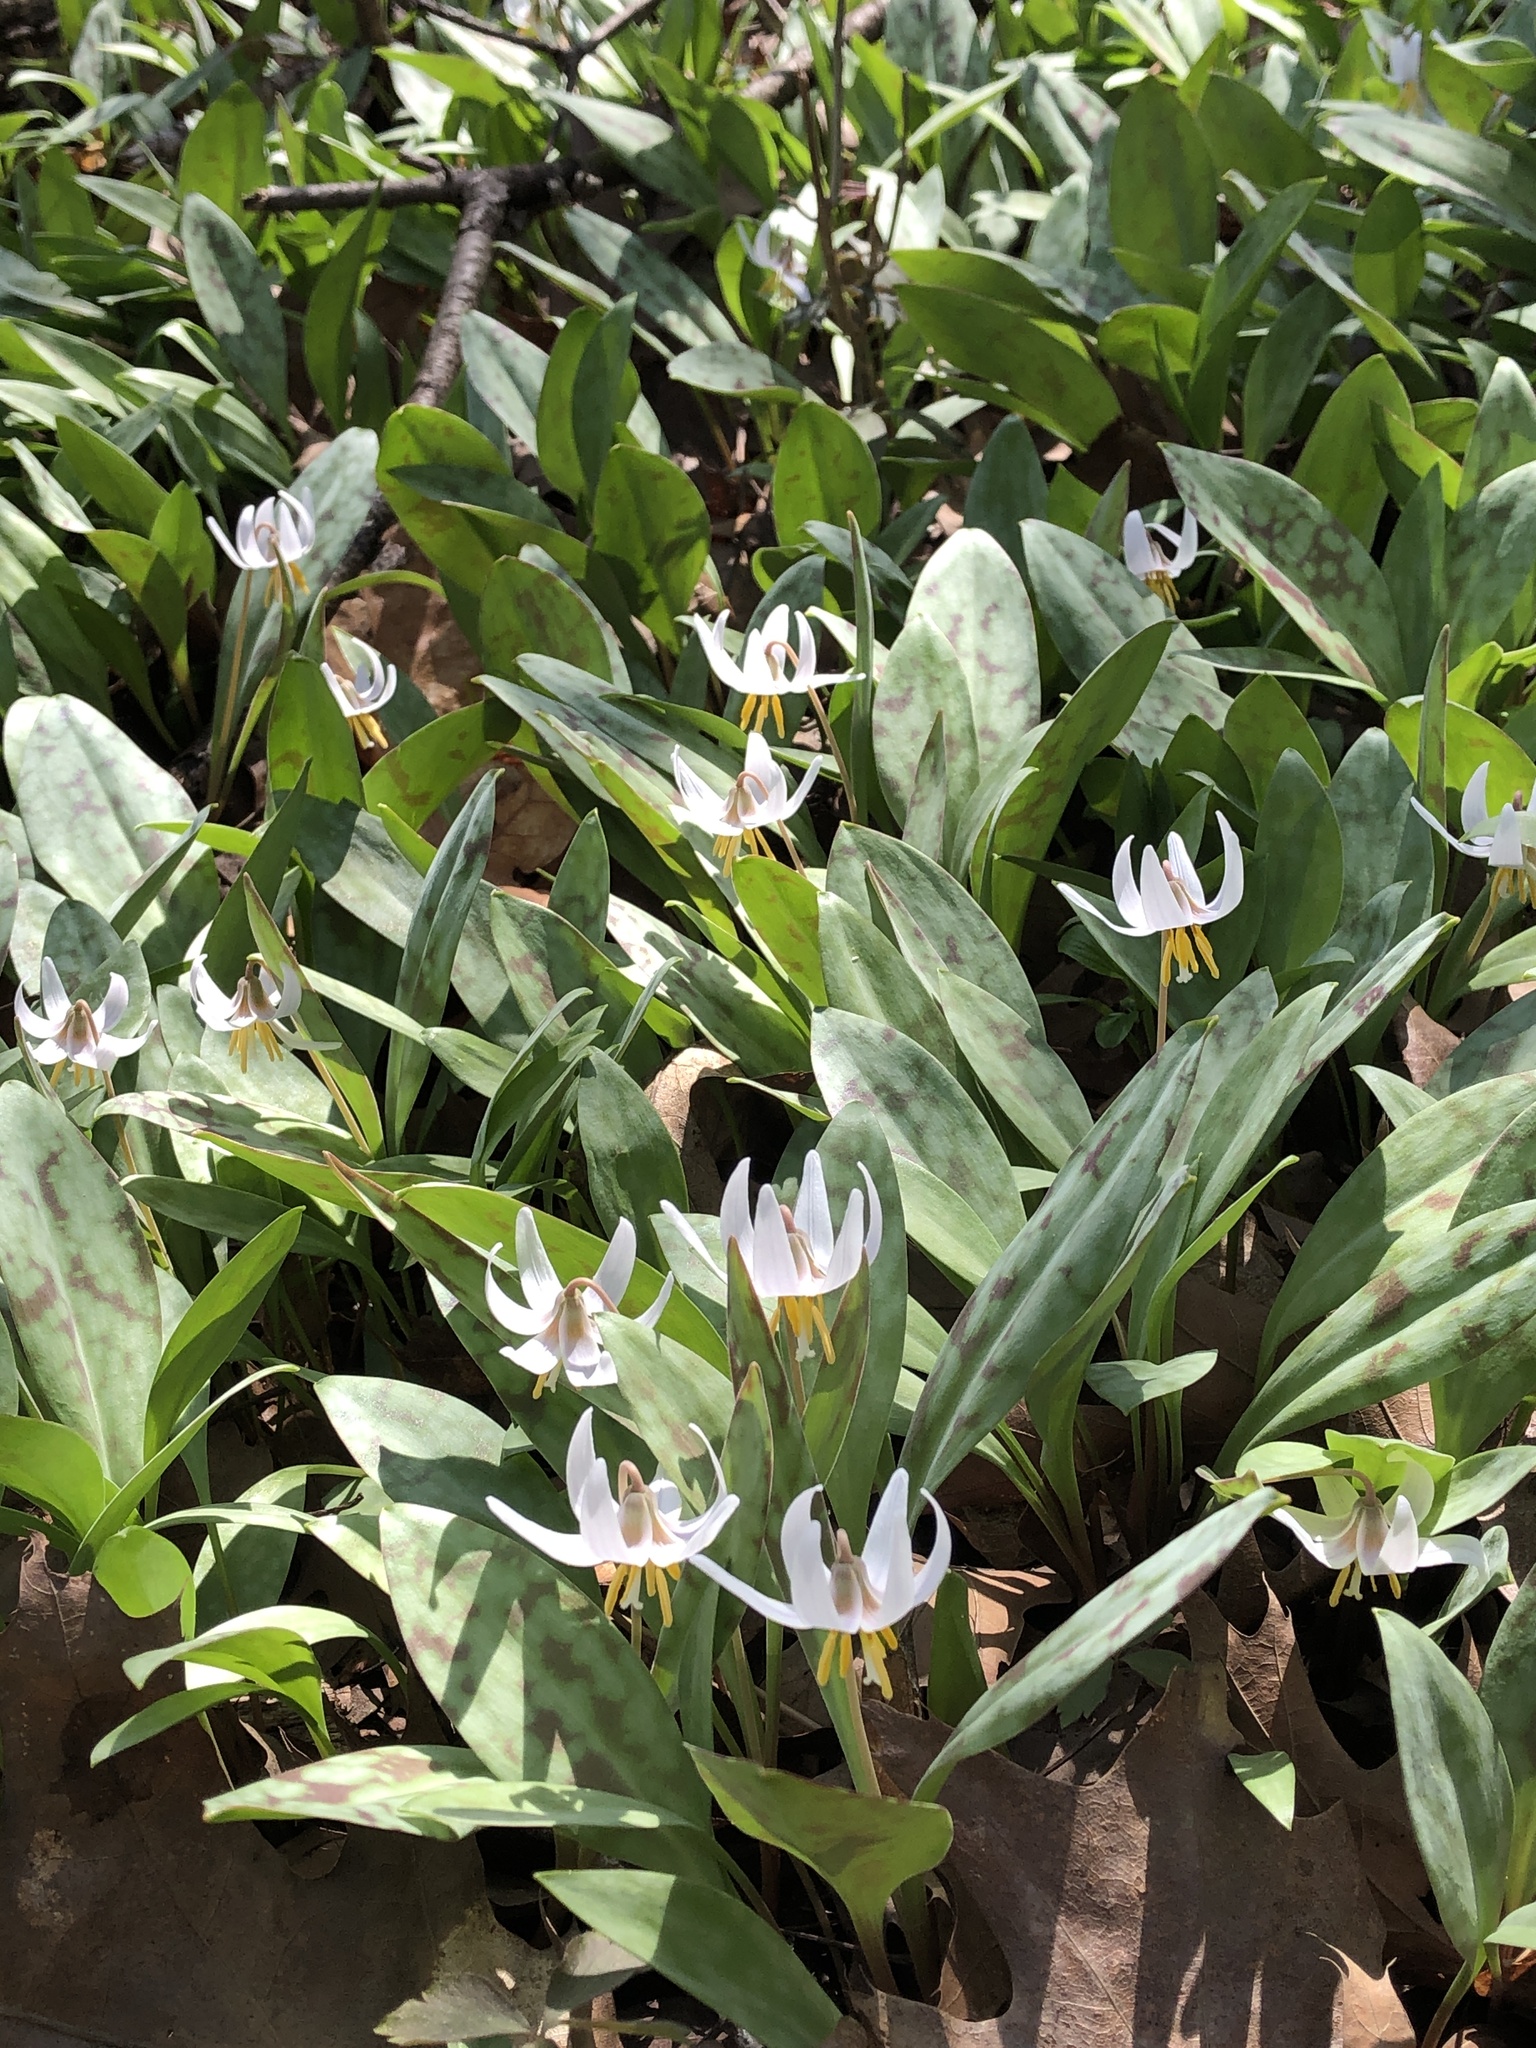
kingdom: Plantae
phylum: Tracheophyta
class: Liliopsida
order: Liliales
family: Liliaceae
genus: Erythronium
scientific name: Erythronium albidum
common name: White trout-lily
